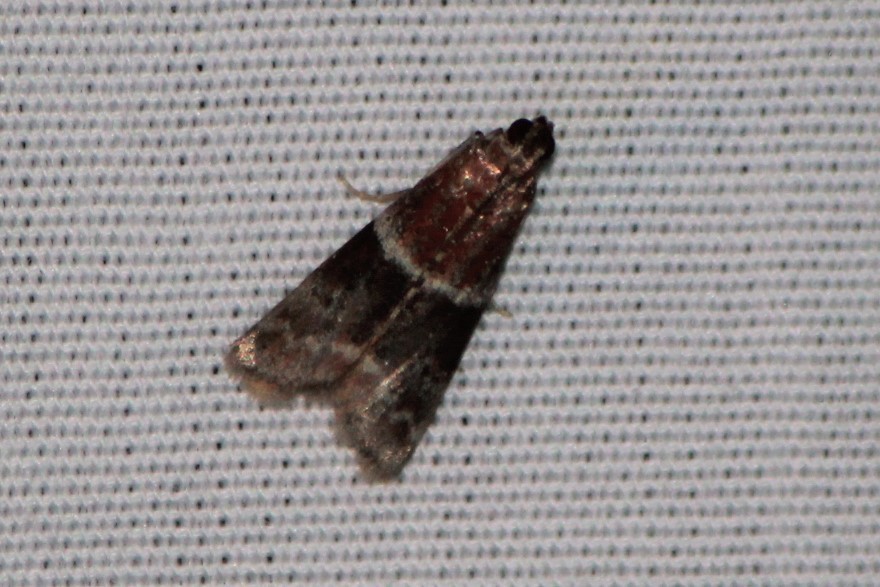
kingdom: Animalia
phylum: Arthropoda
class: Insecta
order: Lepidoptera
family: Pyralidae
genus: Moodna
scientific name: Moodna ostrinella
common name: Darker moodna moth
